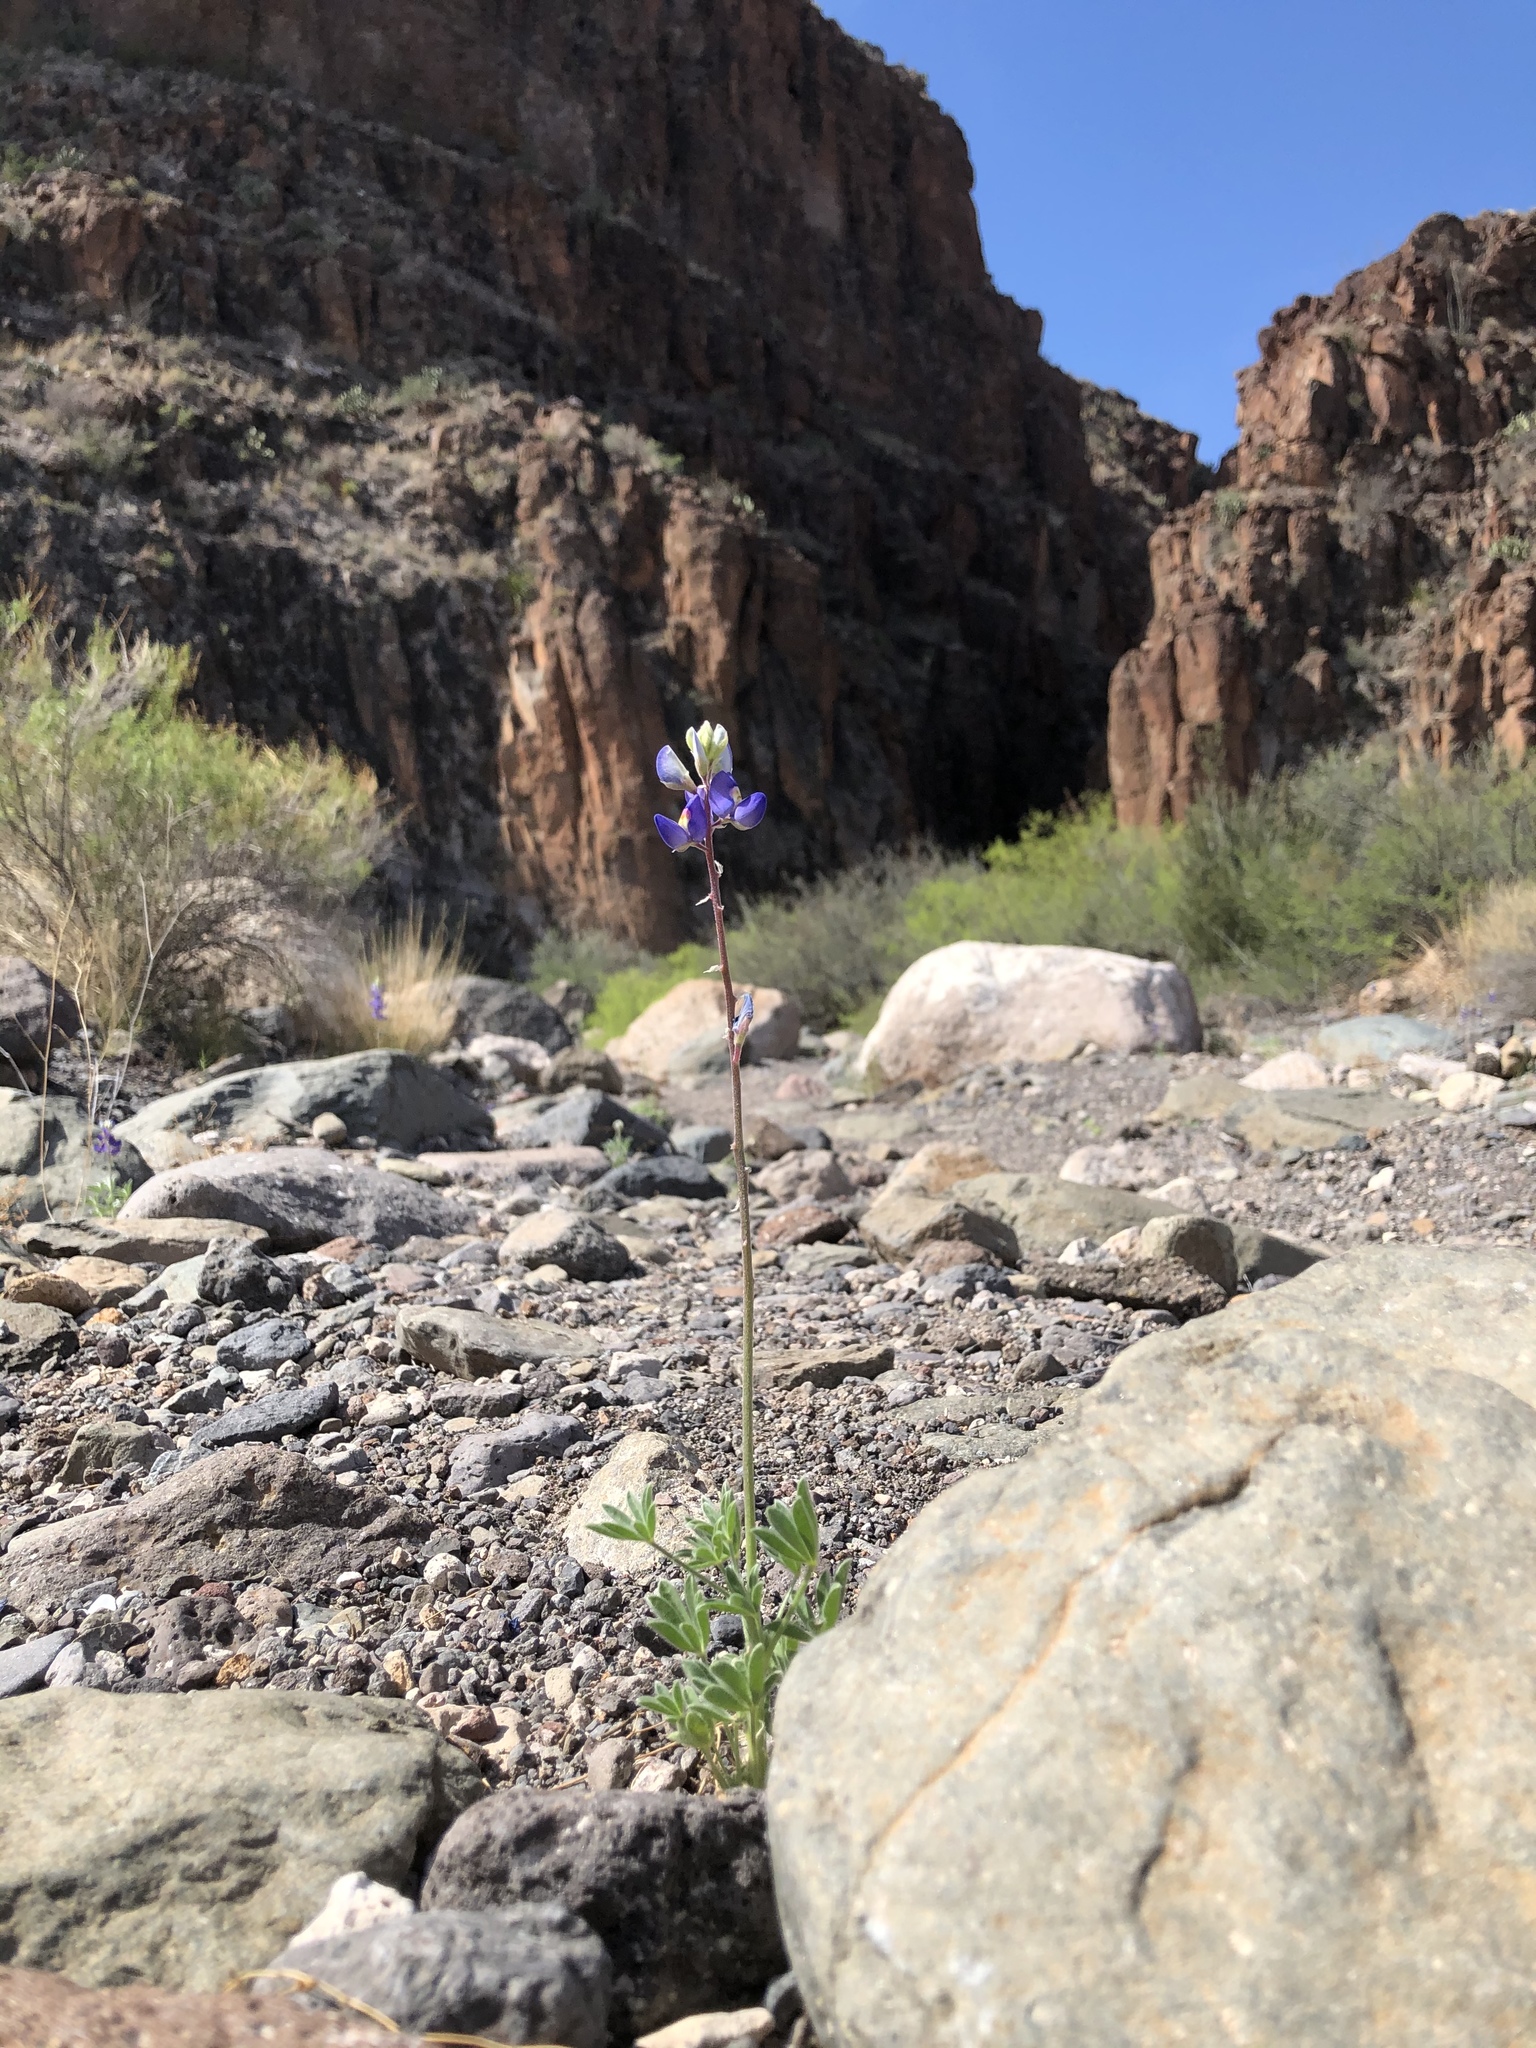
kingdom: Plantae
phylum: Tracheophyta
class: Magnoliopsida
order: Fabales
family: Fabaceae
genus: Lupinus
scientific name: Lupinus havardii
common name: Chisos bluebonnet
